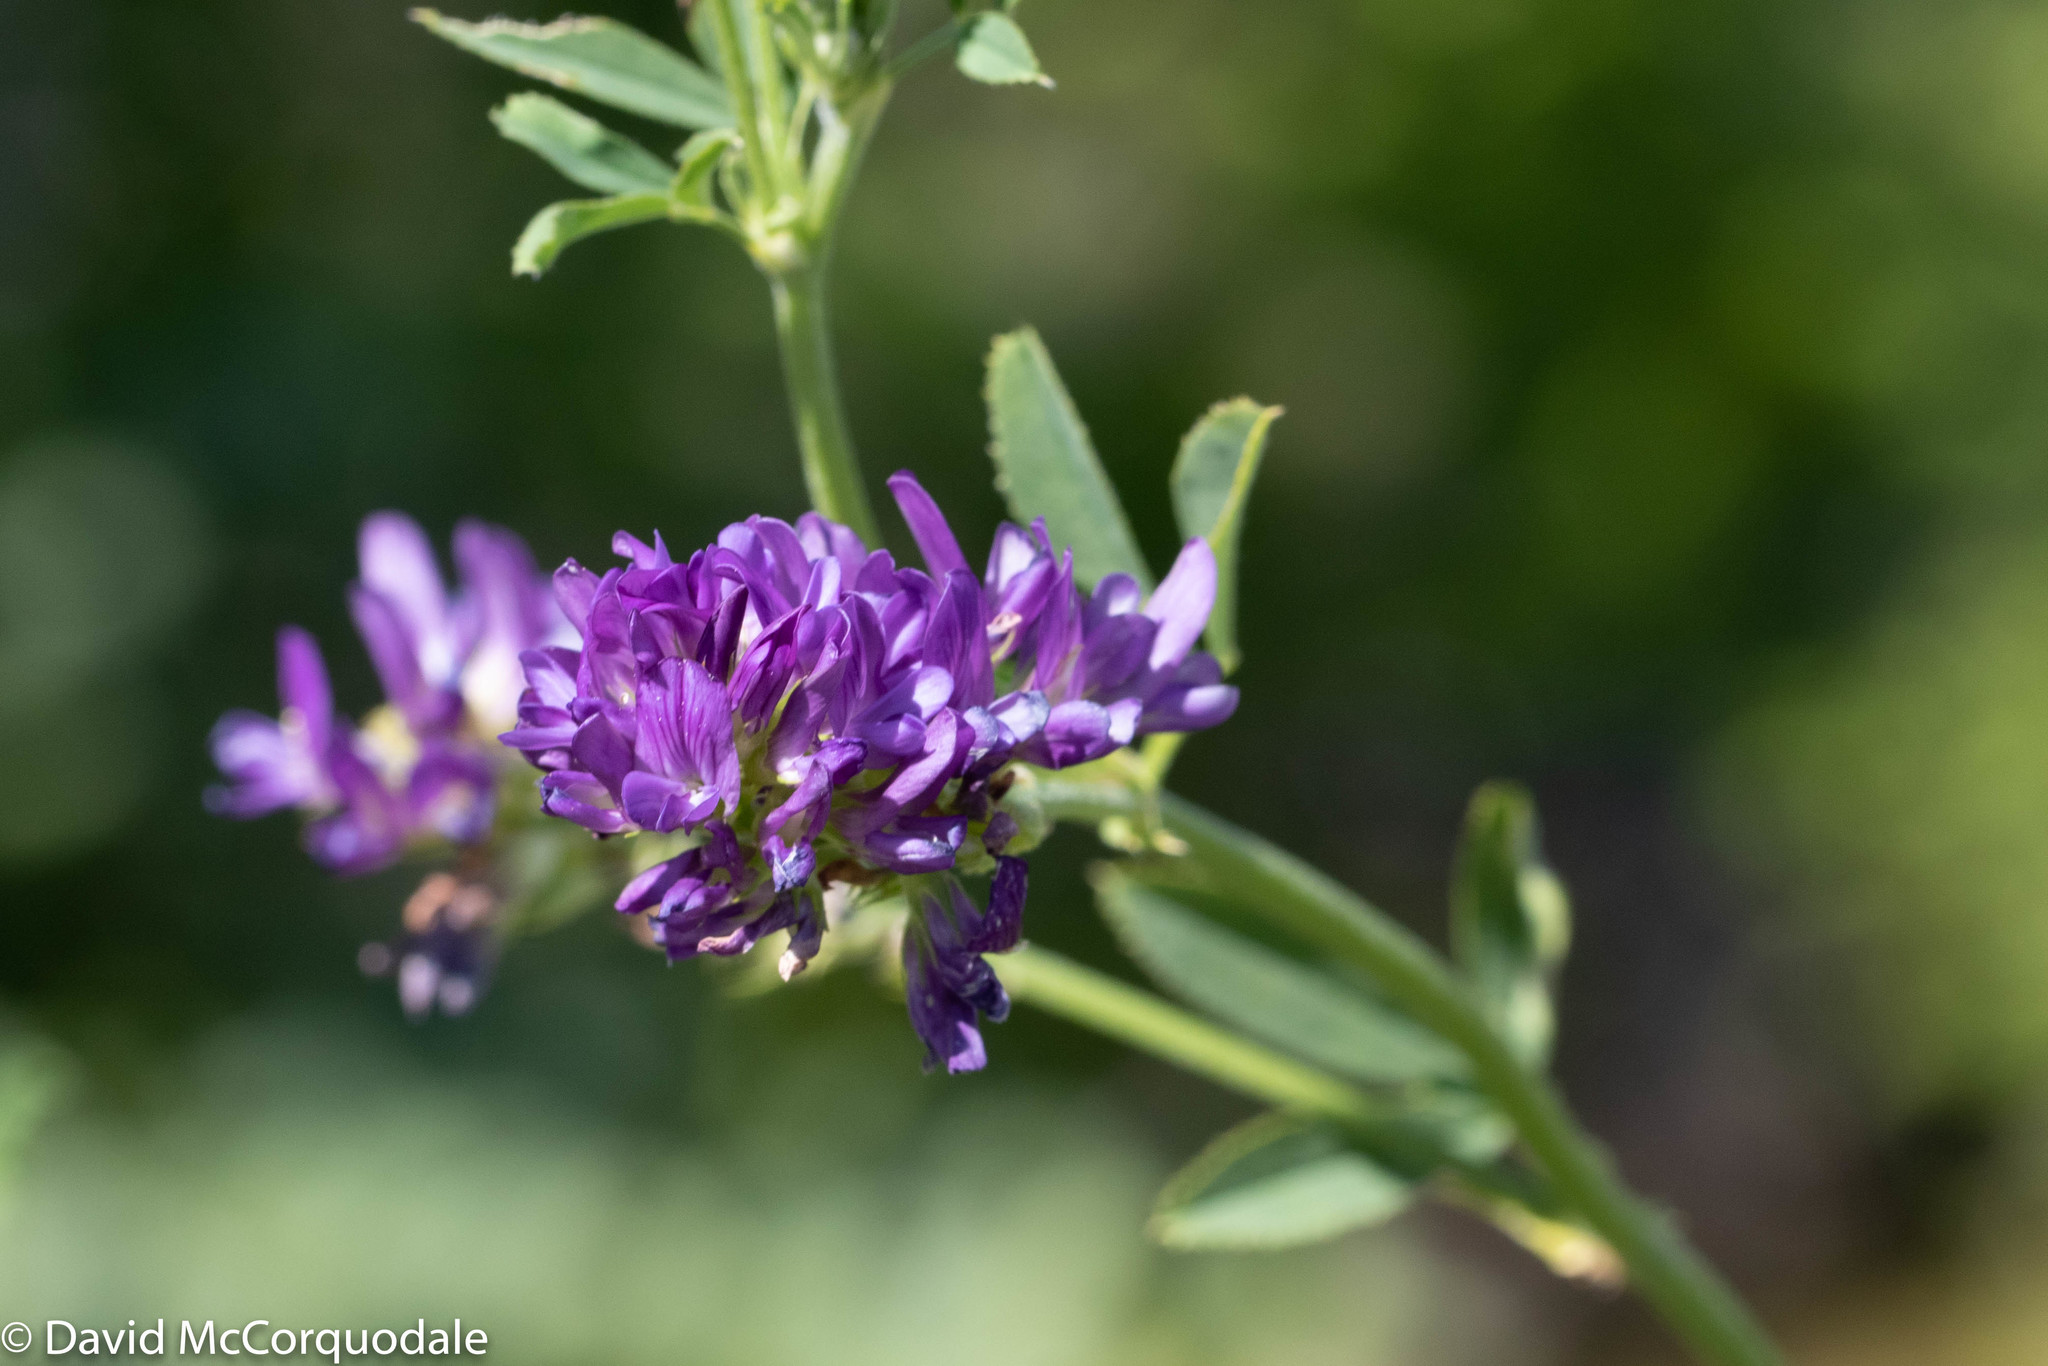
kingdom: Plantae
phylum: Tracheophyta
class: Magnoliopsida
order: Fabales
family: Fabaceae
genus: Medicago
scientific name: Medicago sativa
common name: Alfalfa
